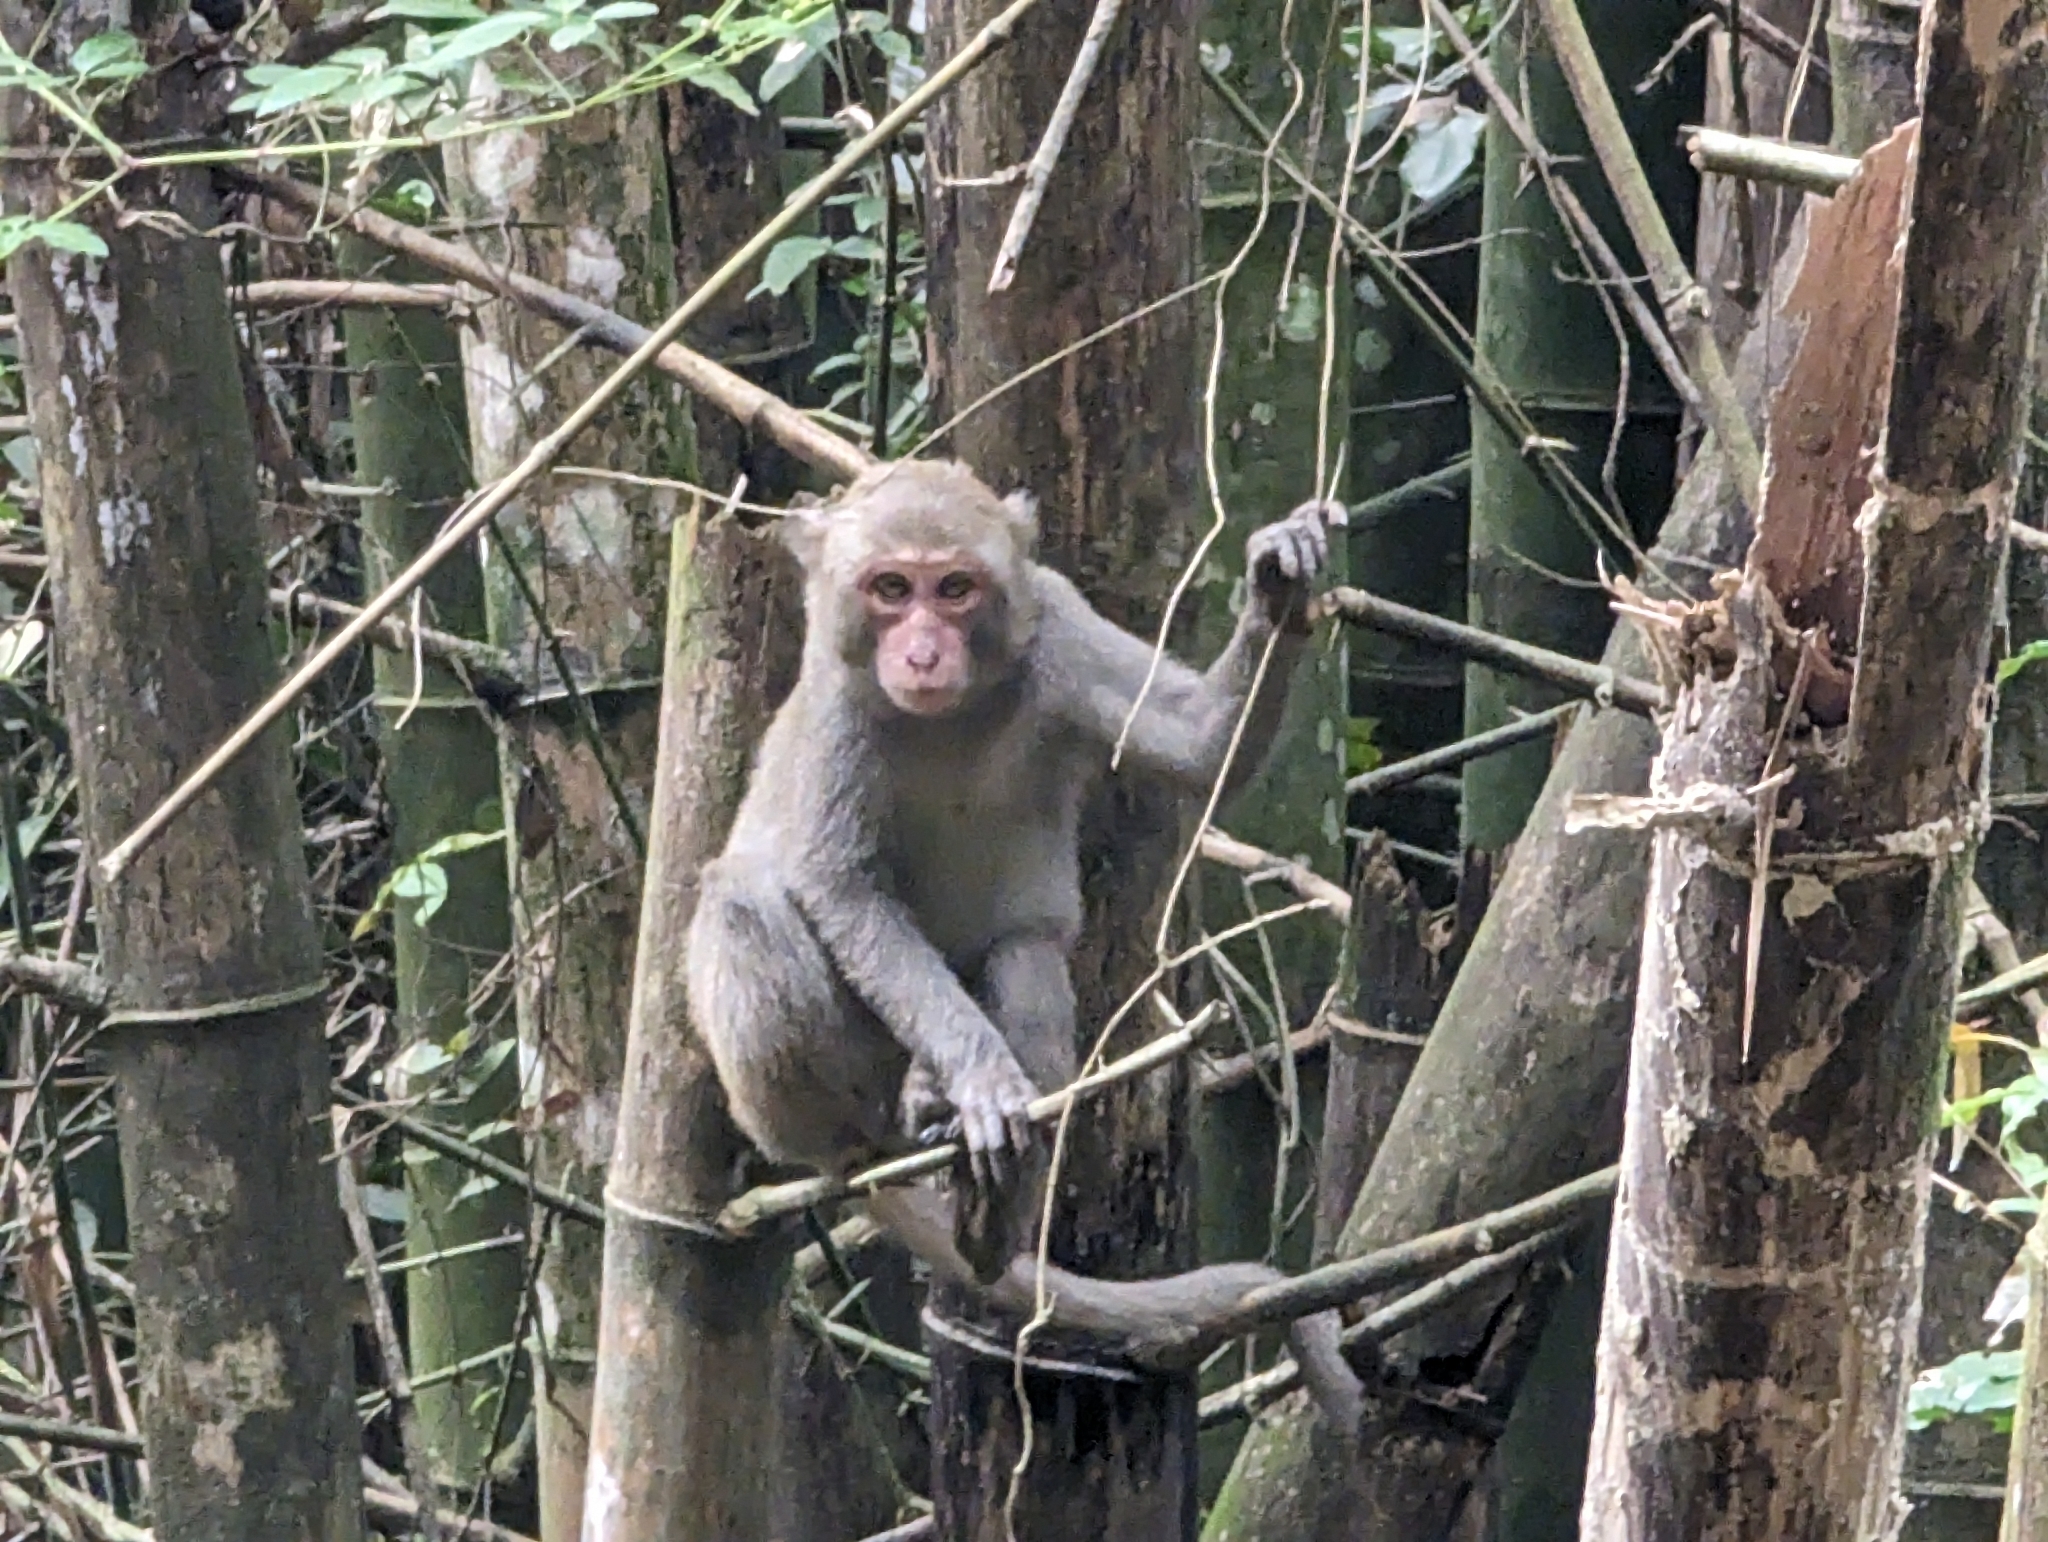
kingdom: Animalia
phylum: Chordata
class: Mammalia
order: Primates
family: Cercopithecidae
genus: Macaca
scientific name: Macaca cyclopis
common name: Formosan rock macaque
